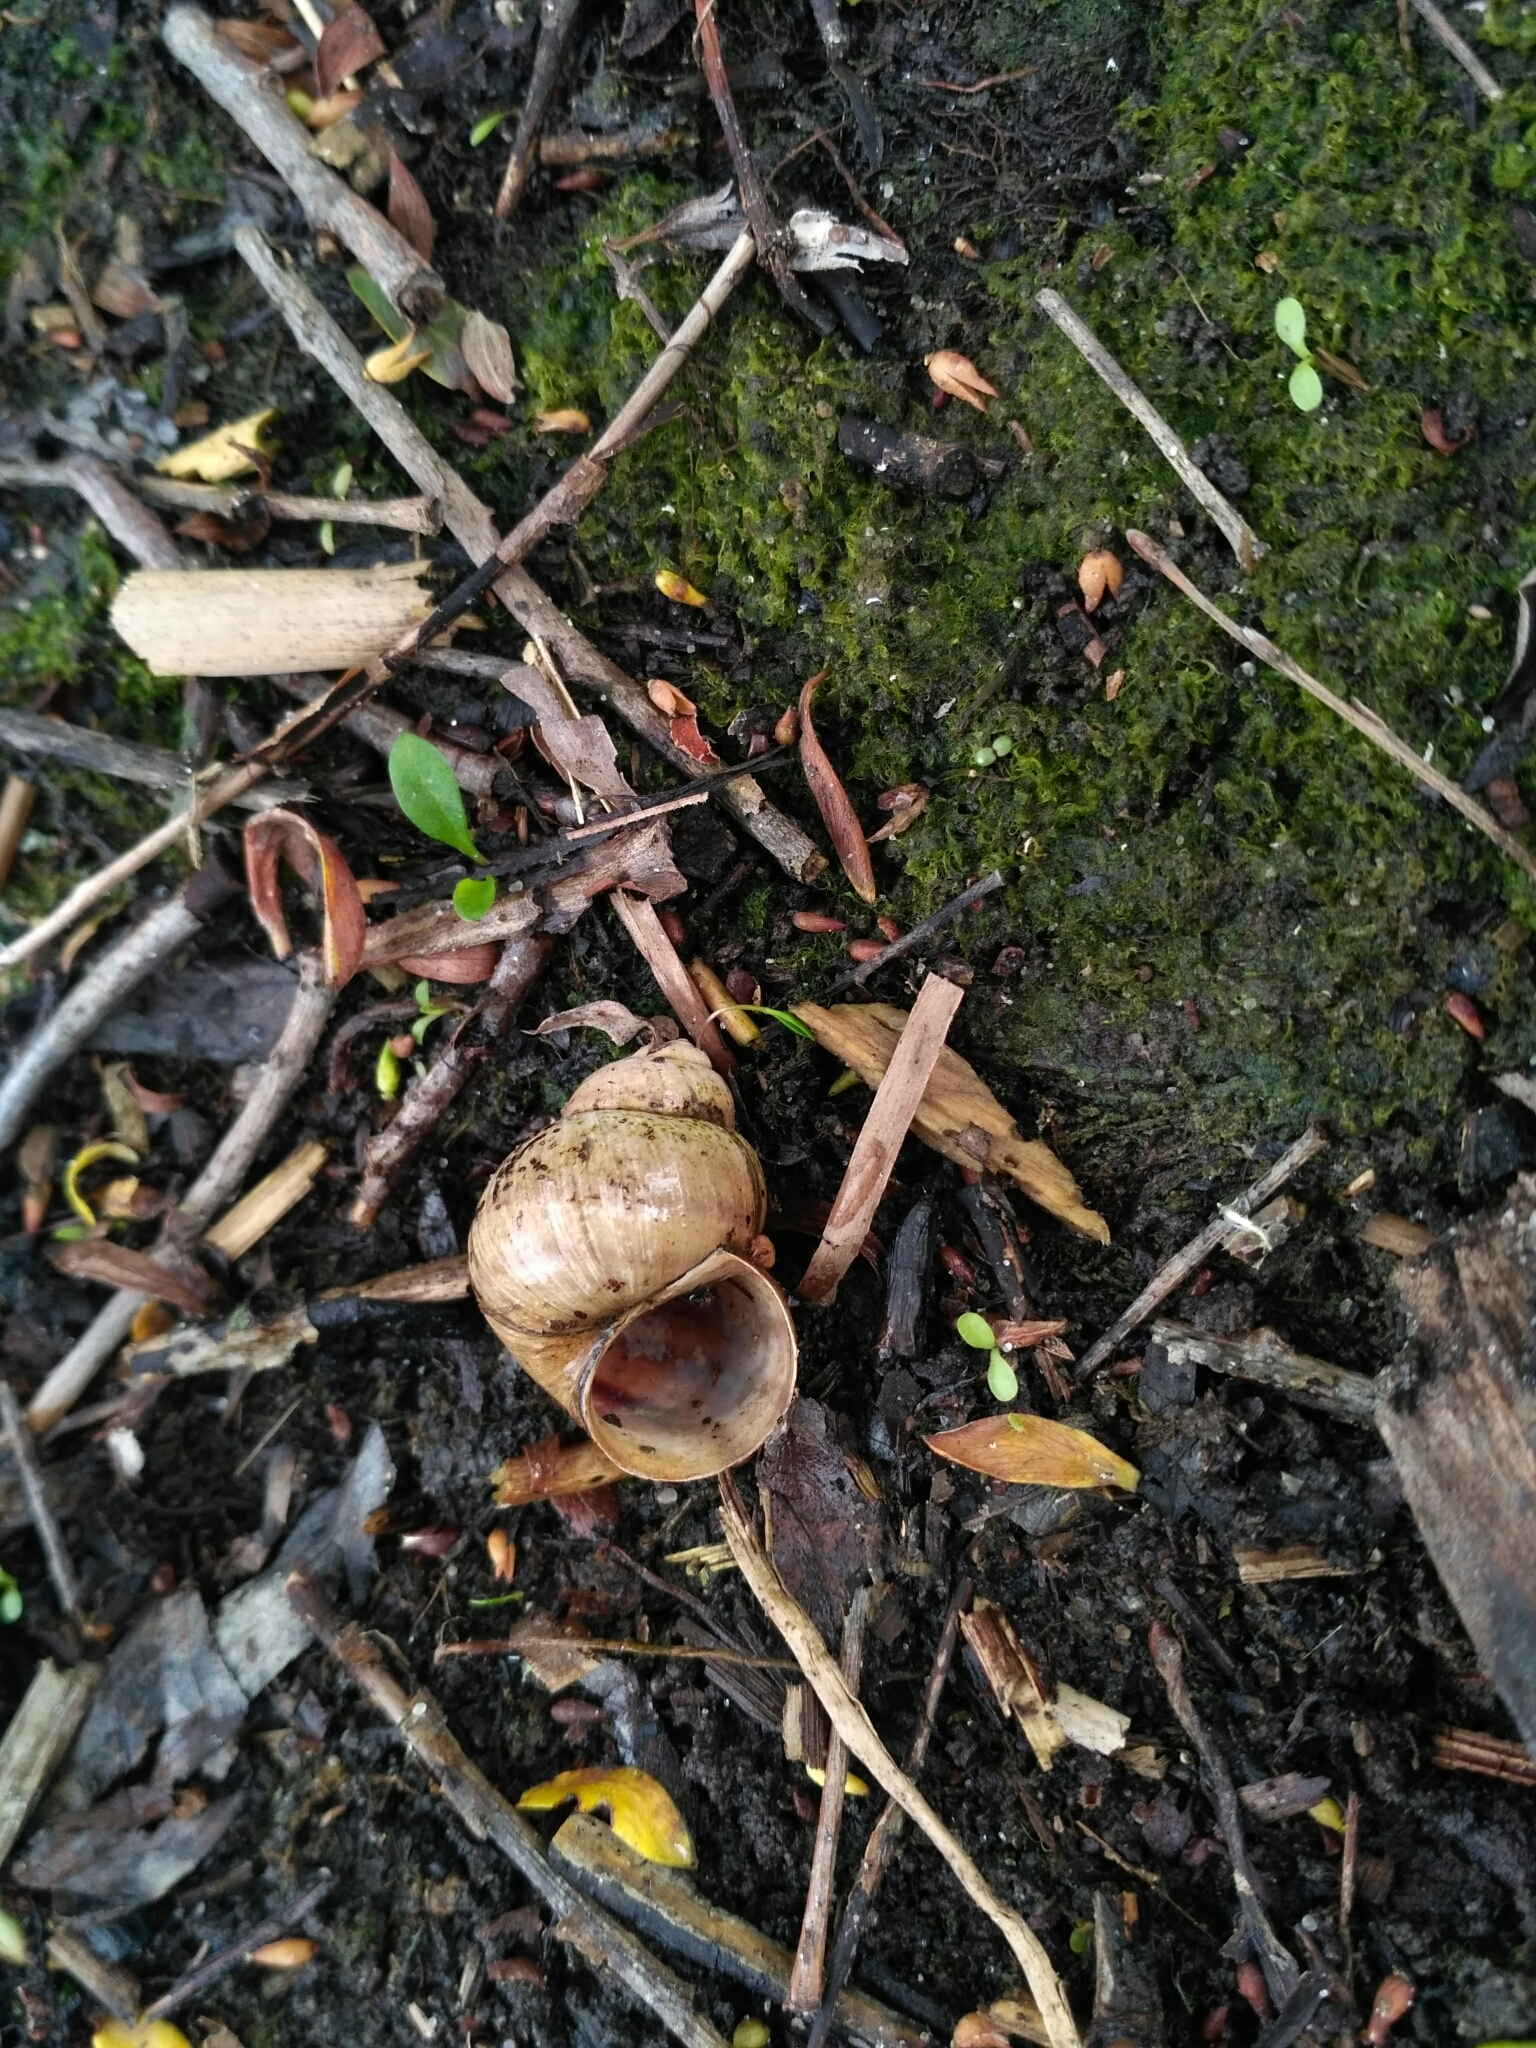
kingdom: Animalia
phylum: Mollusca
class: Gastropoda
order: Architaenioglossa
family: Viviparidae
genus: Viviparus
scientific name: Viviparus viviparus
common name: River snail
